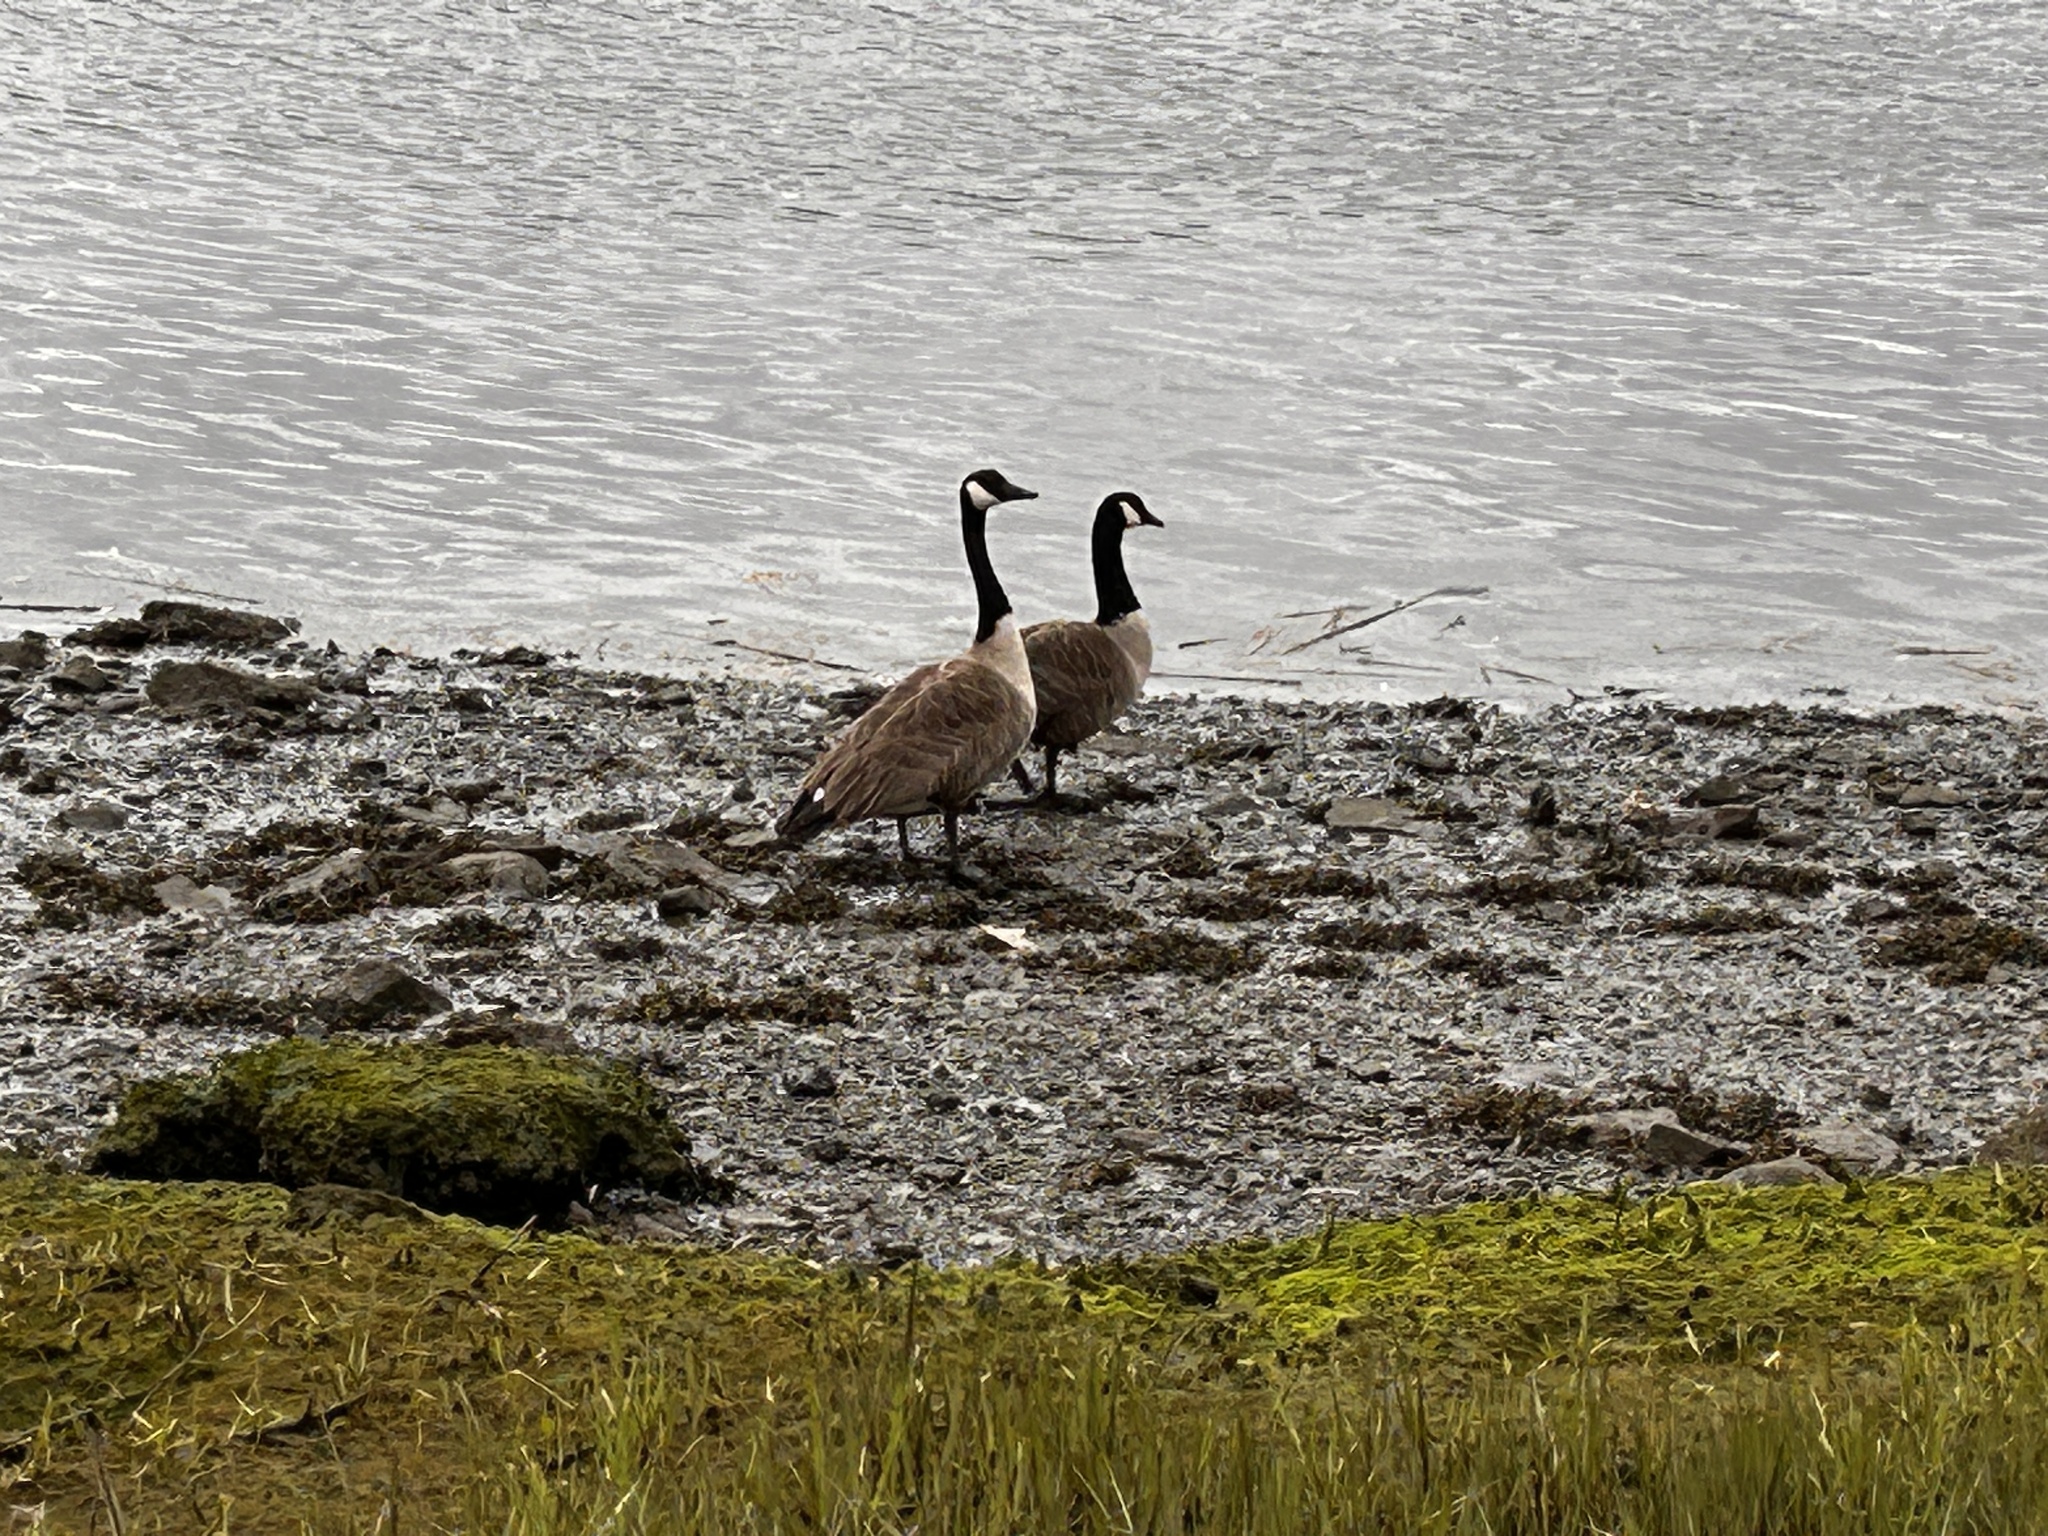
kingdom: Animalia
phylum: Chordata
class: Aves
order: Anseriformes
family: Anatidae
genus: Branta
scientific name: Branta canadensis
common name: Canada goose
